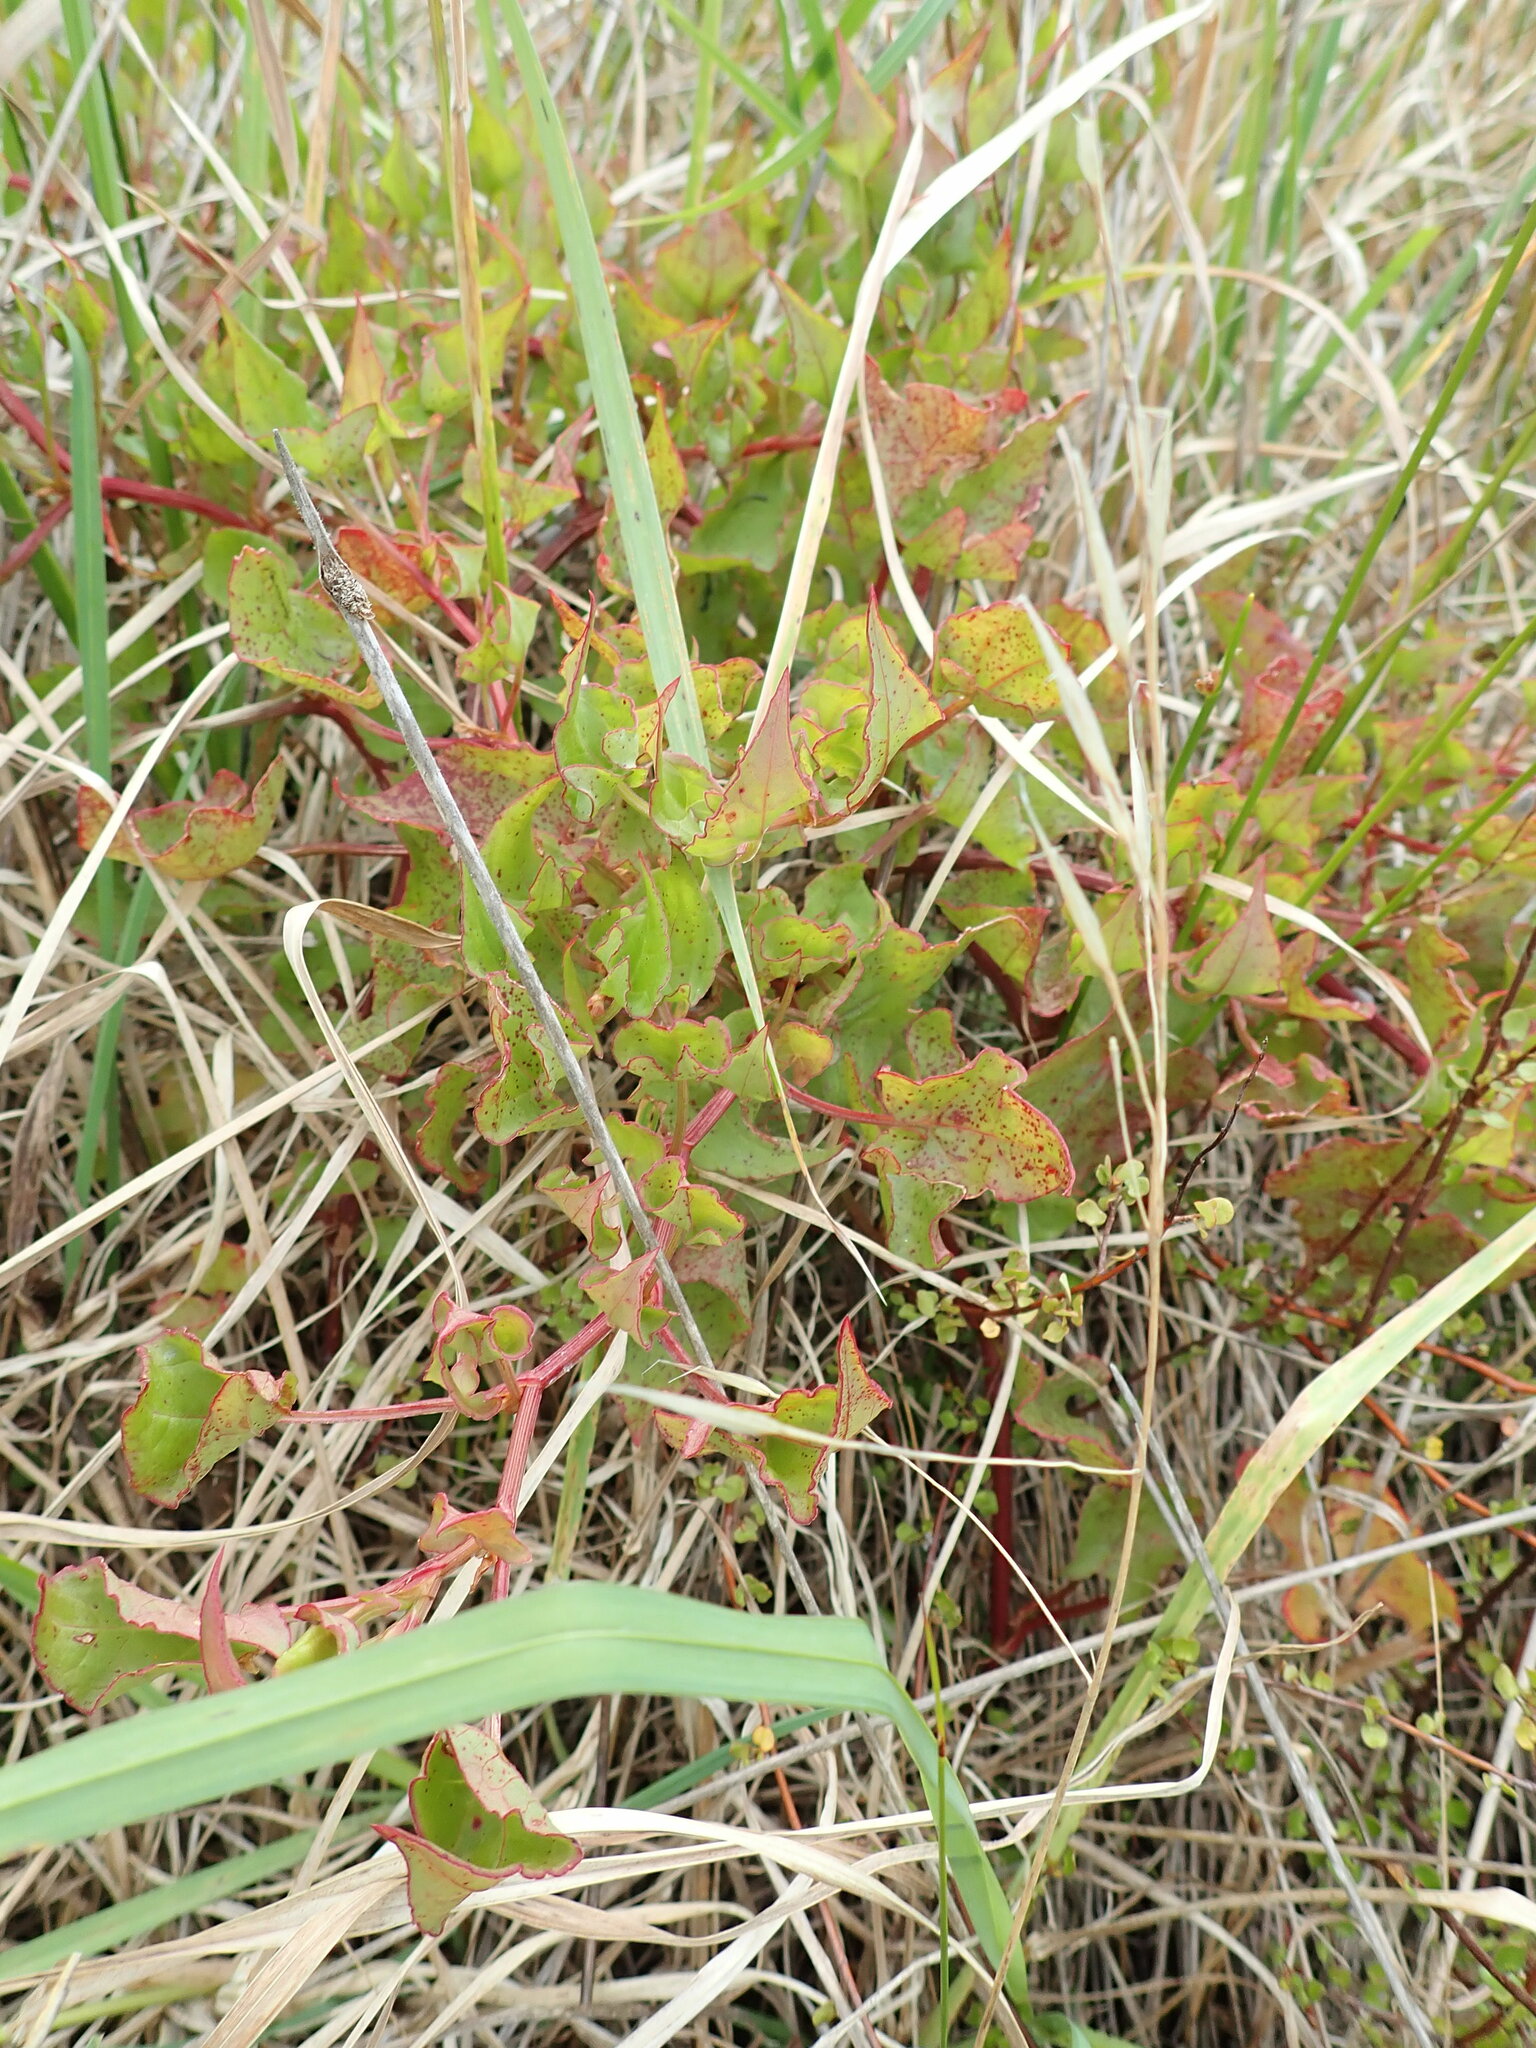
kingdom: Plantae
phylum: Tracheophyta
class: Magnoliopsida
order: Caryophyllales
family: Polygonaceae
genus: Rumex
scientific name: Rumex sagittatus
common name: Climbing dock
